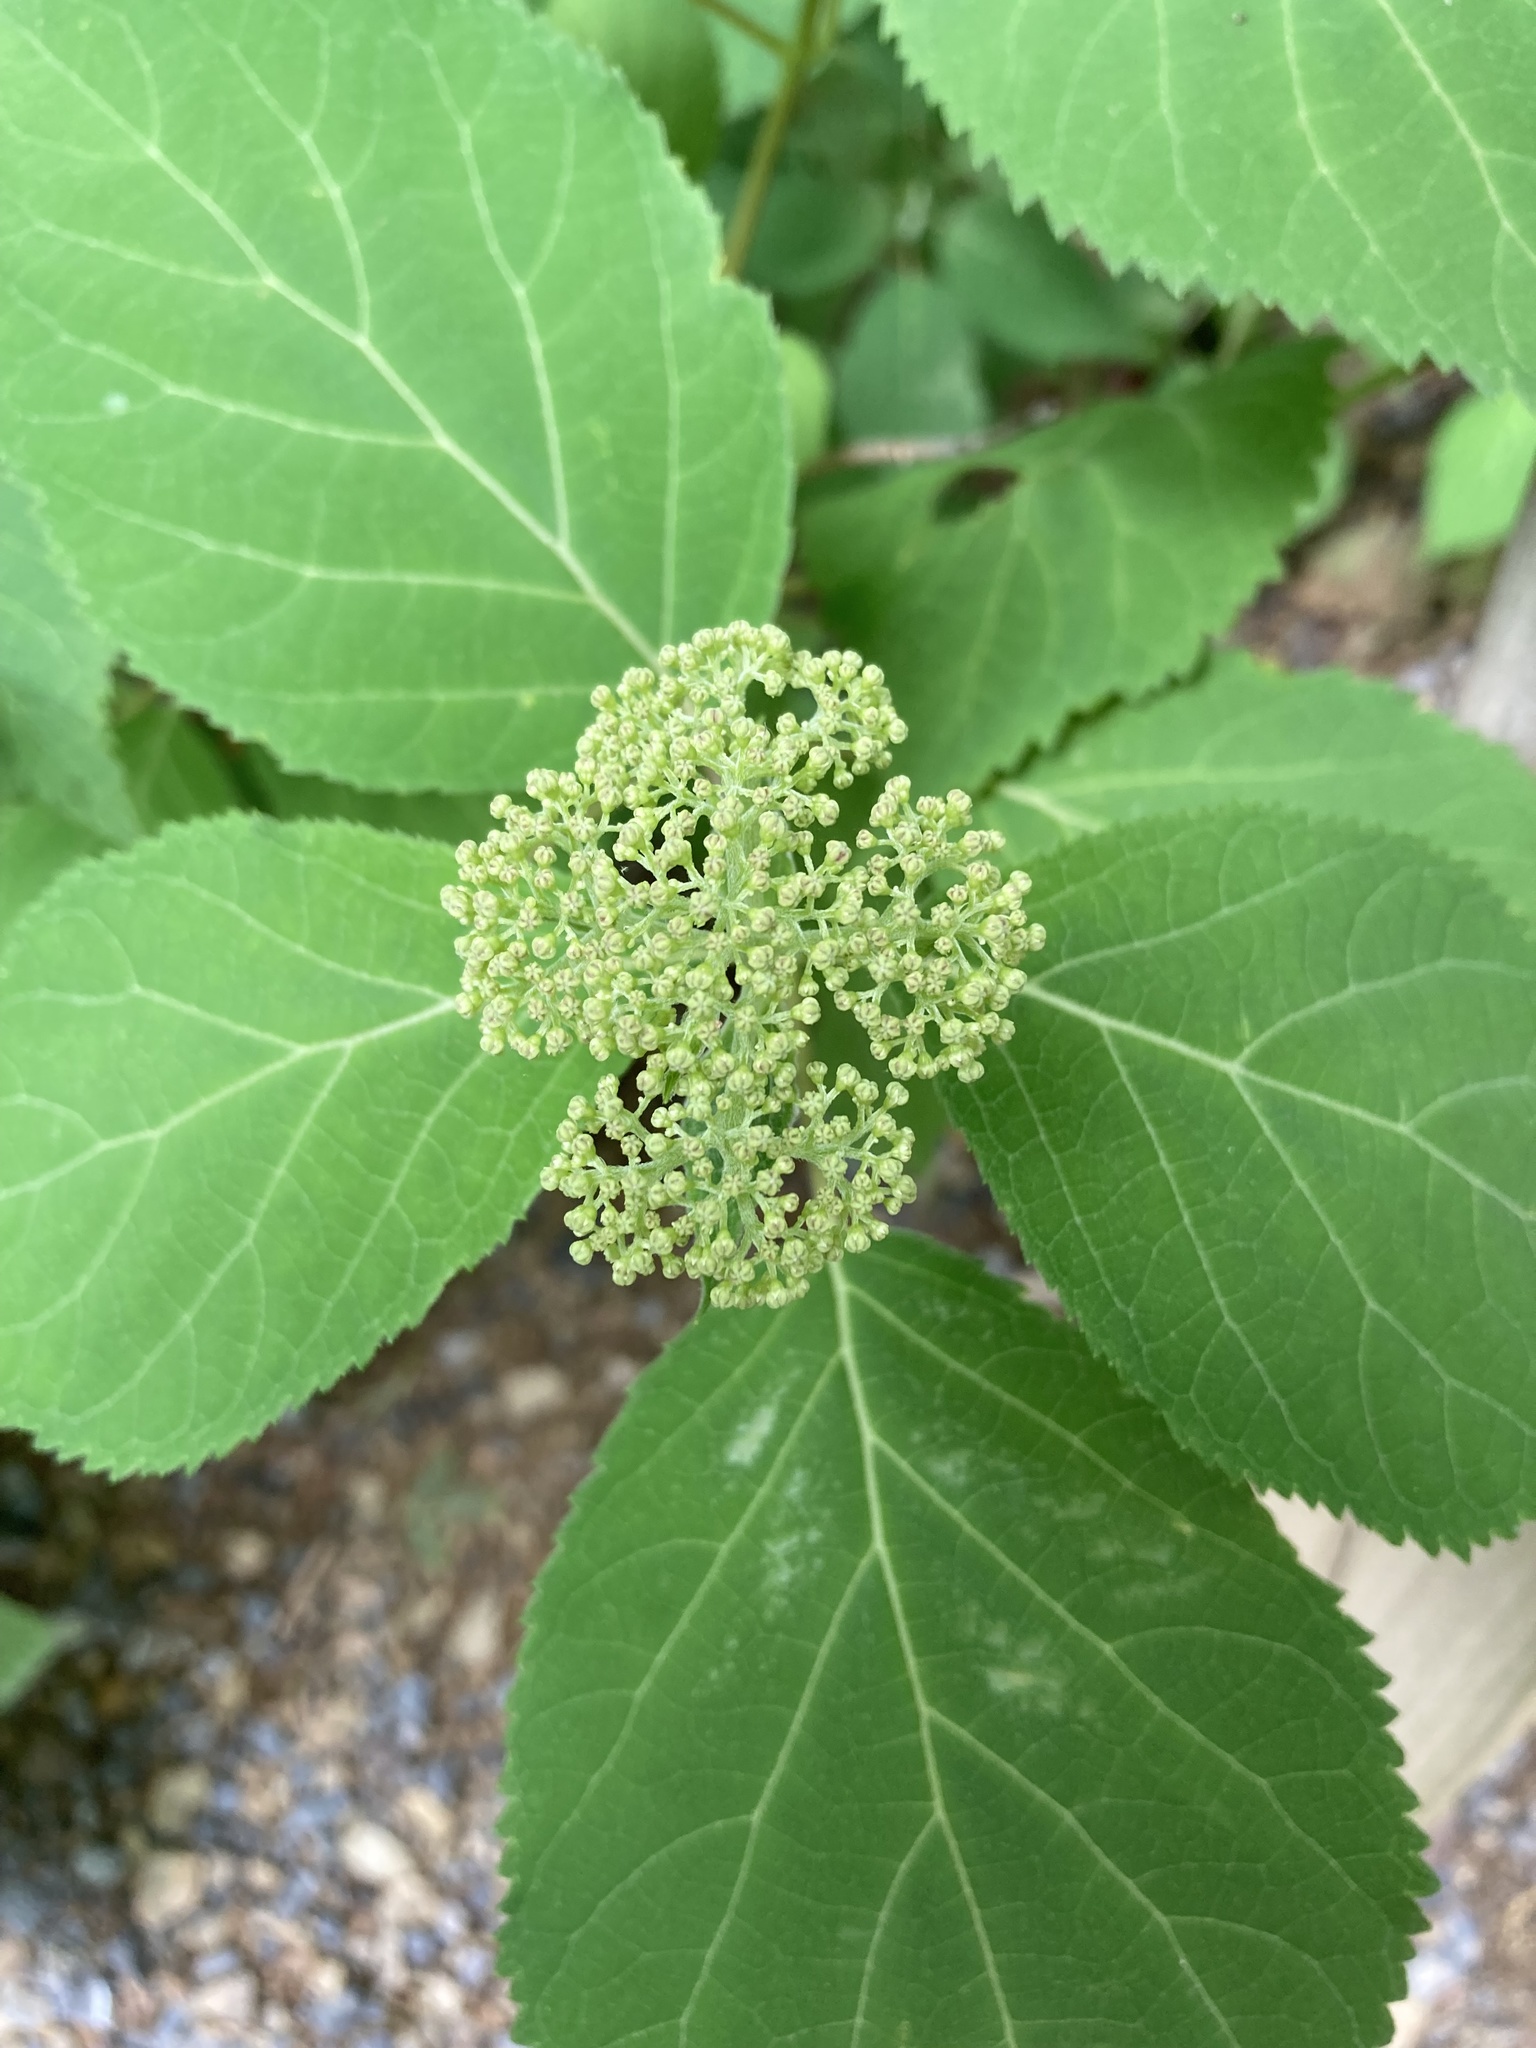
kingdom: Plantae
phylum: Tracheophyta
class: Magnoliopsida
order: Cornales
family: Hydrangeaceae
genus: Hydrangea
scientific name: Hydrangea arborescens
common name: Sevenbark
